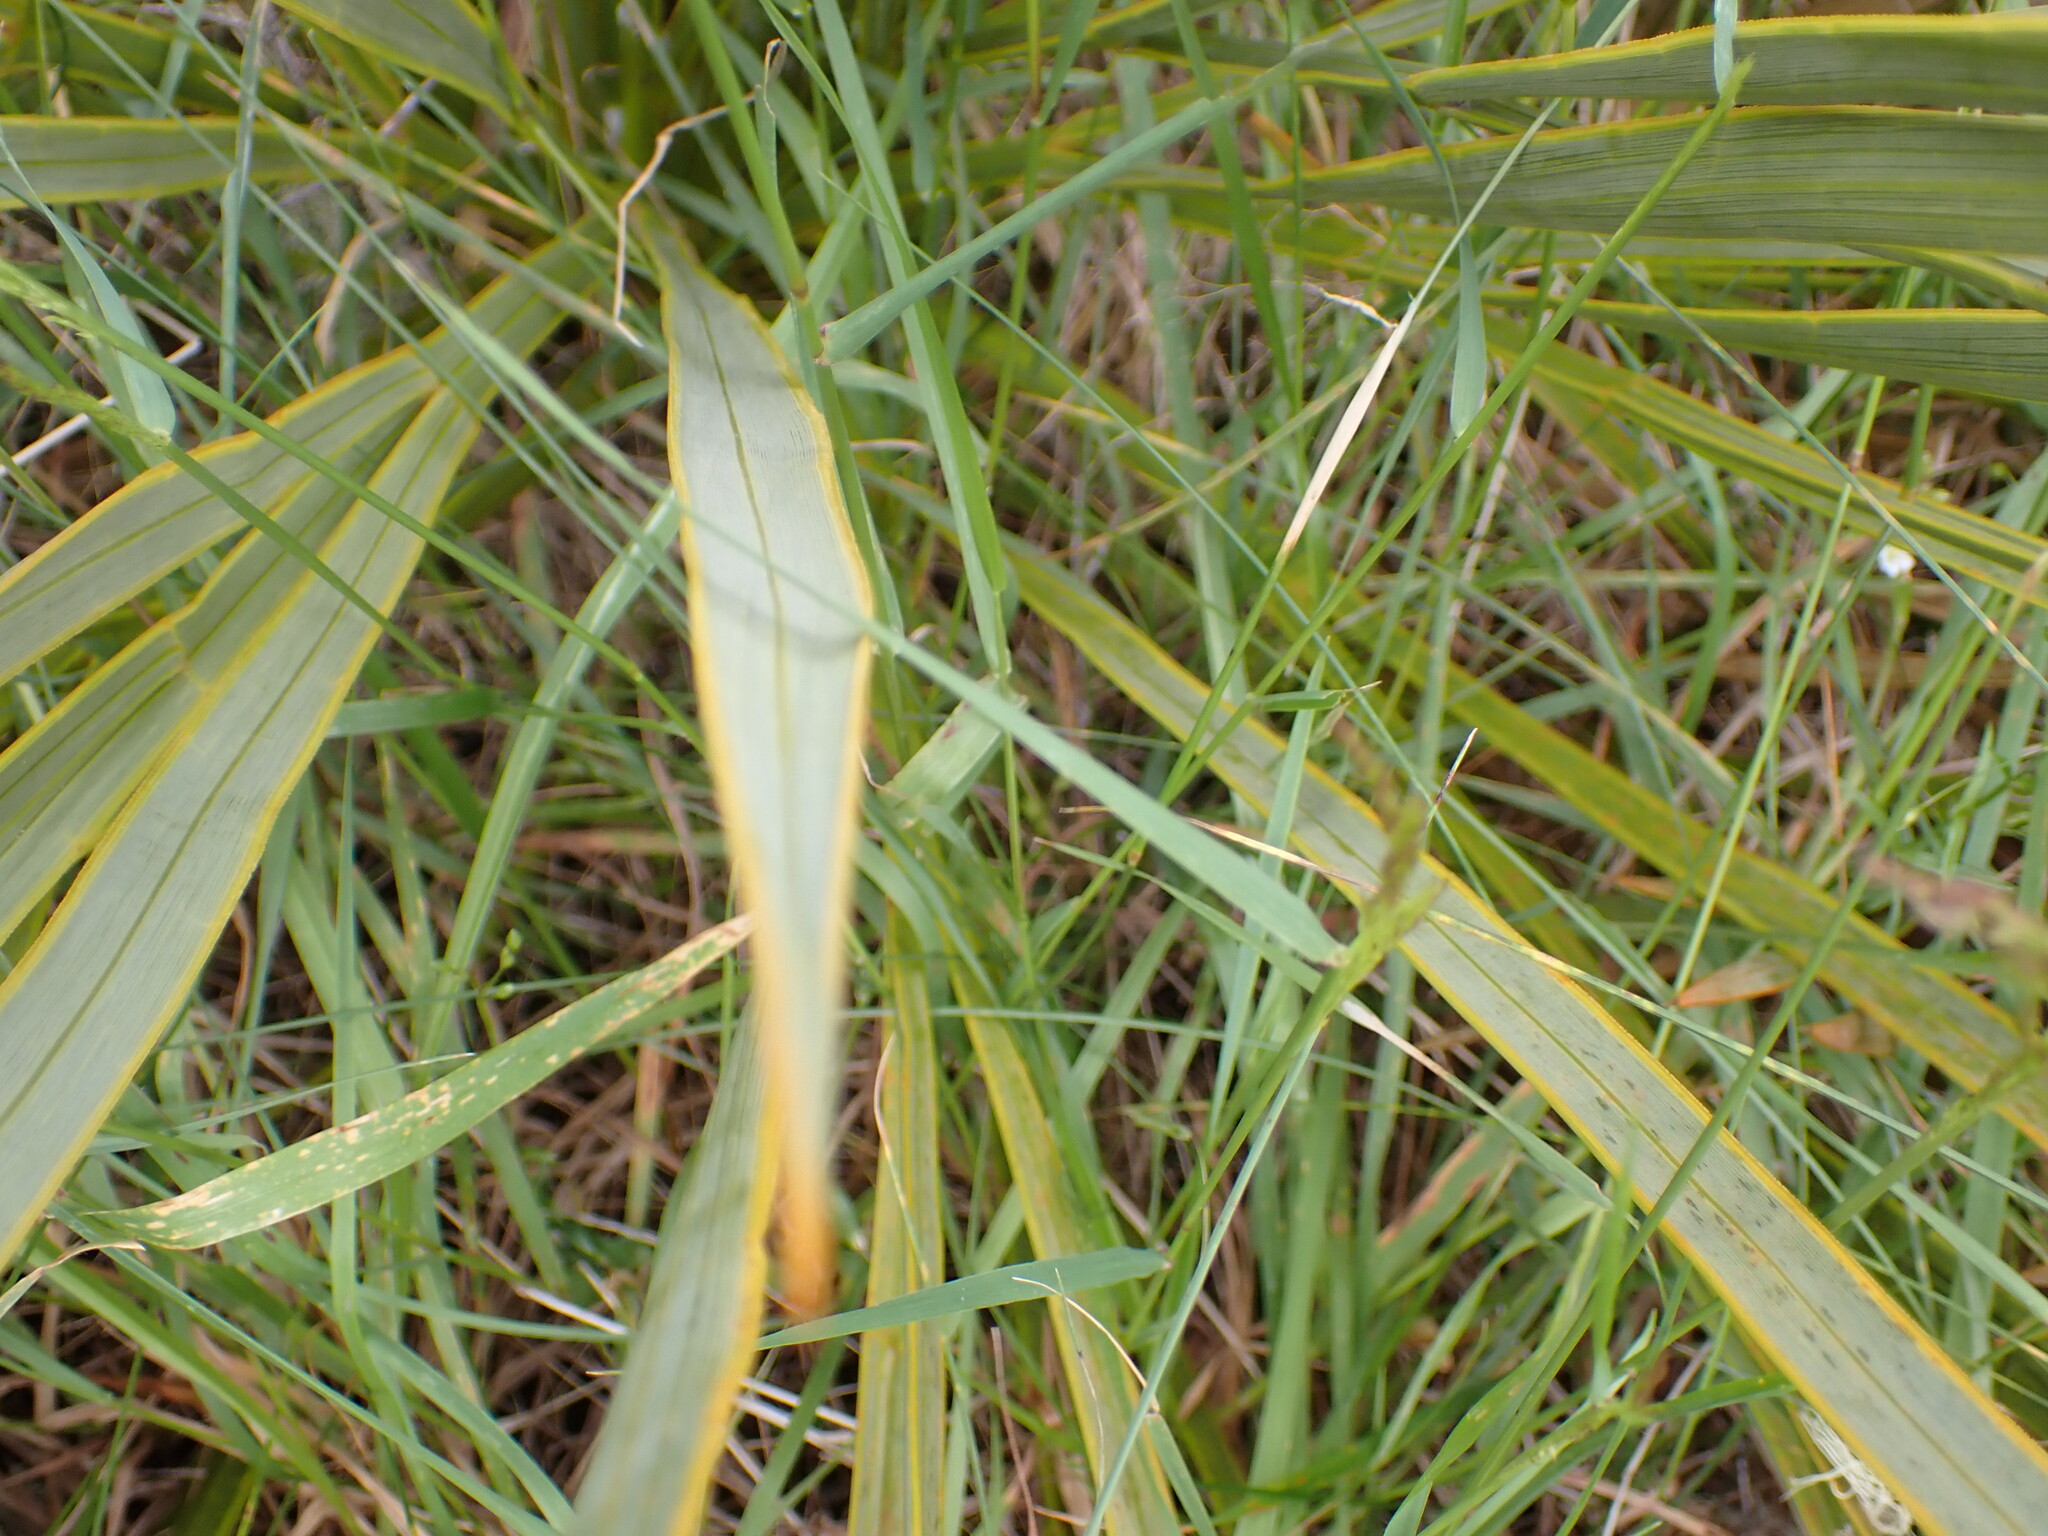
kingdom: Plantae
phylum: Tracheophyta
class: Magnoliopsida
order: Apiales
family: Apiaceae
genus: Aciphylla
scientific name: Aciphylla aurea
